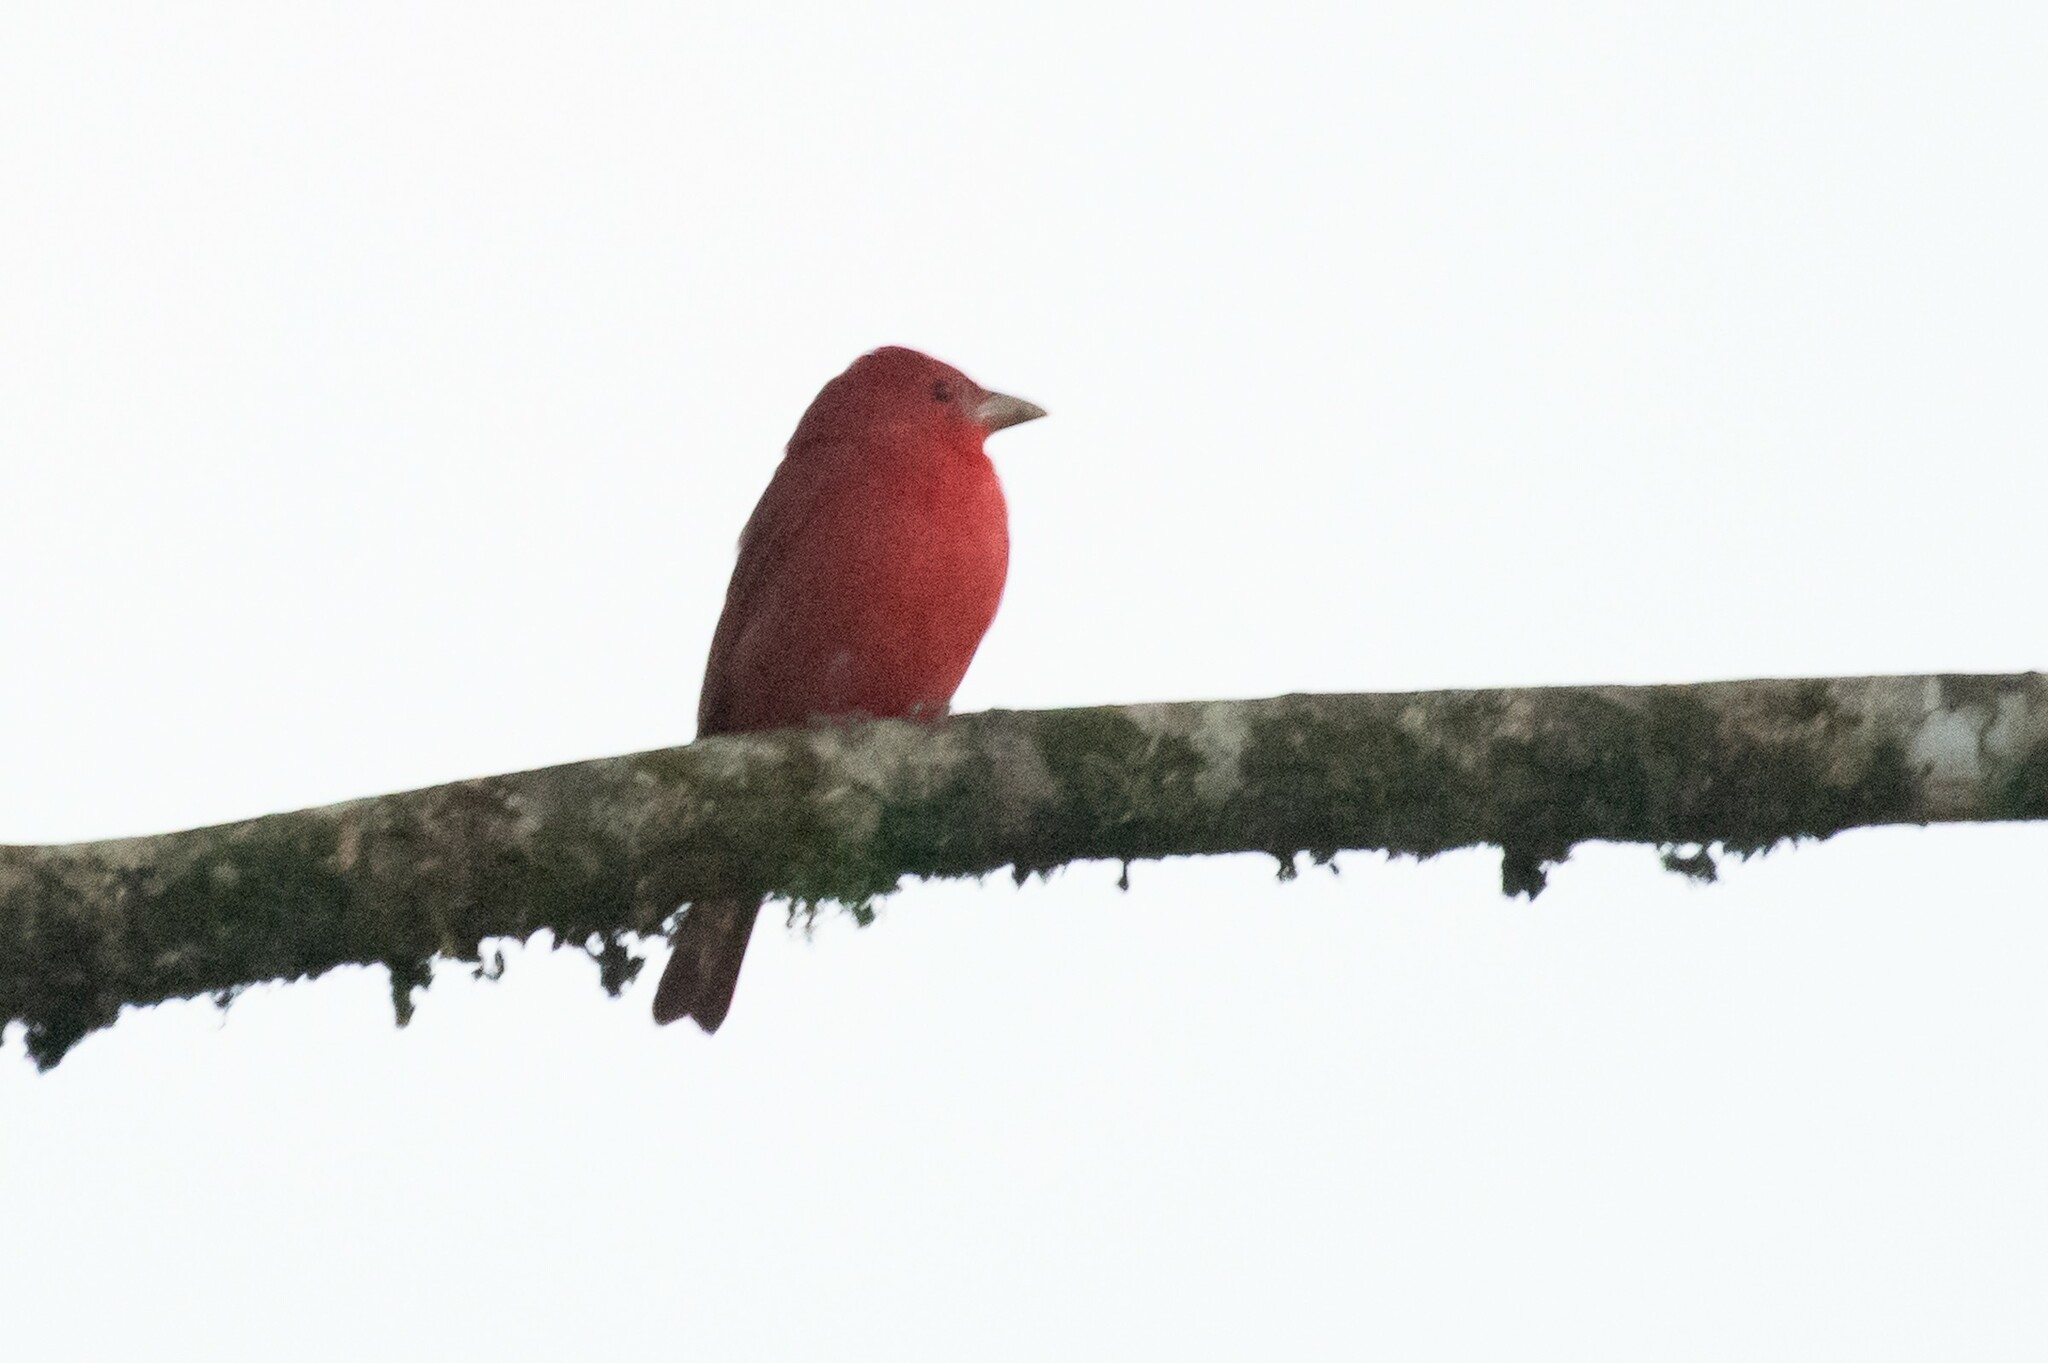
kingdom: Animalia
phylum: Chordata
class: Aves
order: Passeriformes
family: Cardinalidae
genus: Piranga
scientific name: Piranga rubra
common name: Summer tanager
